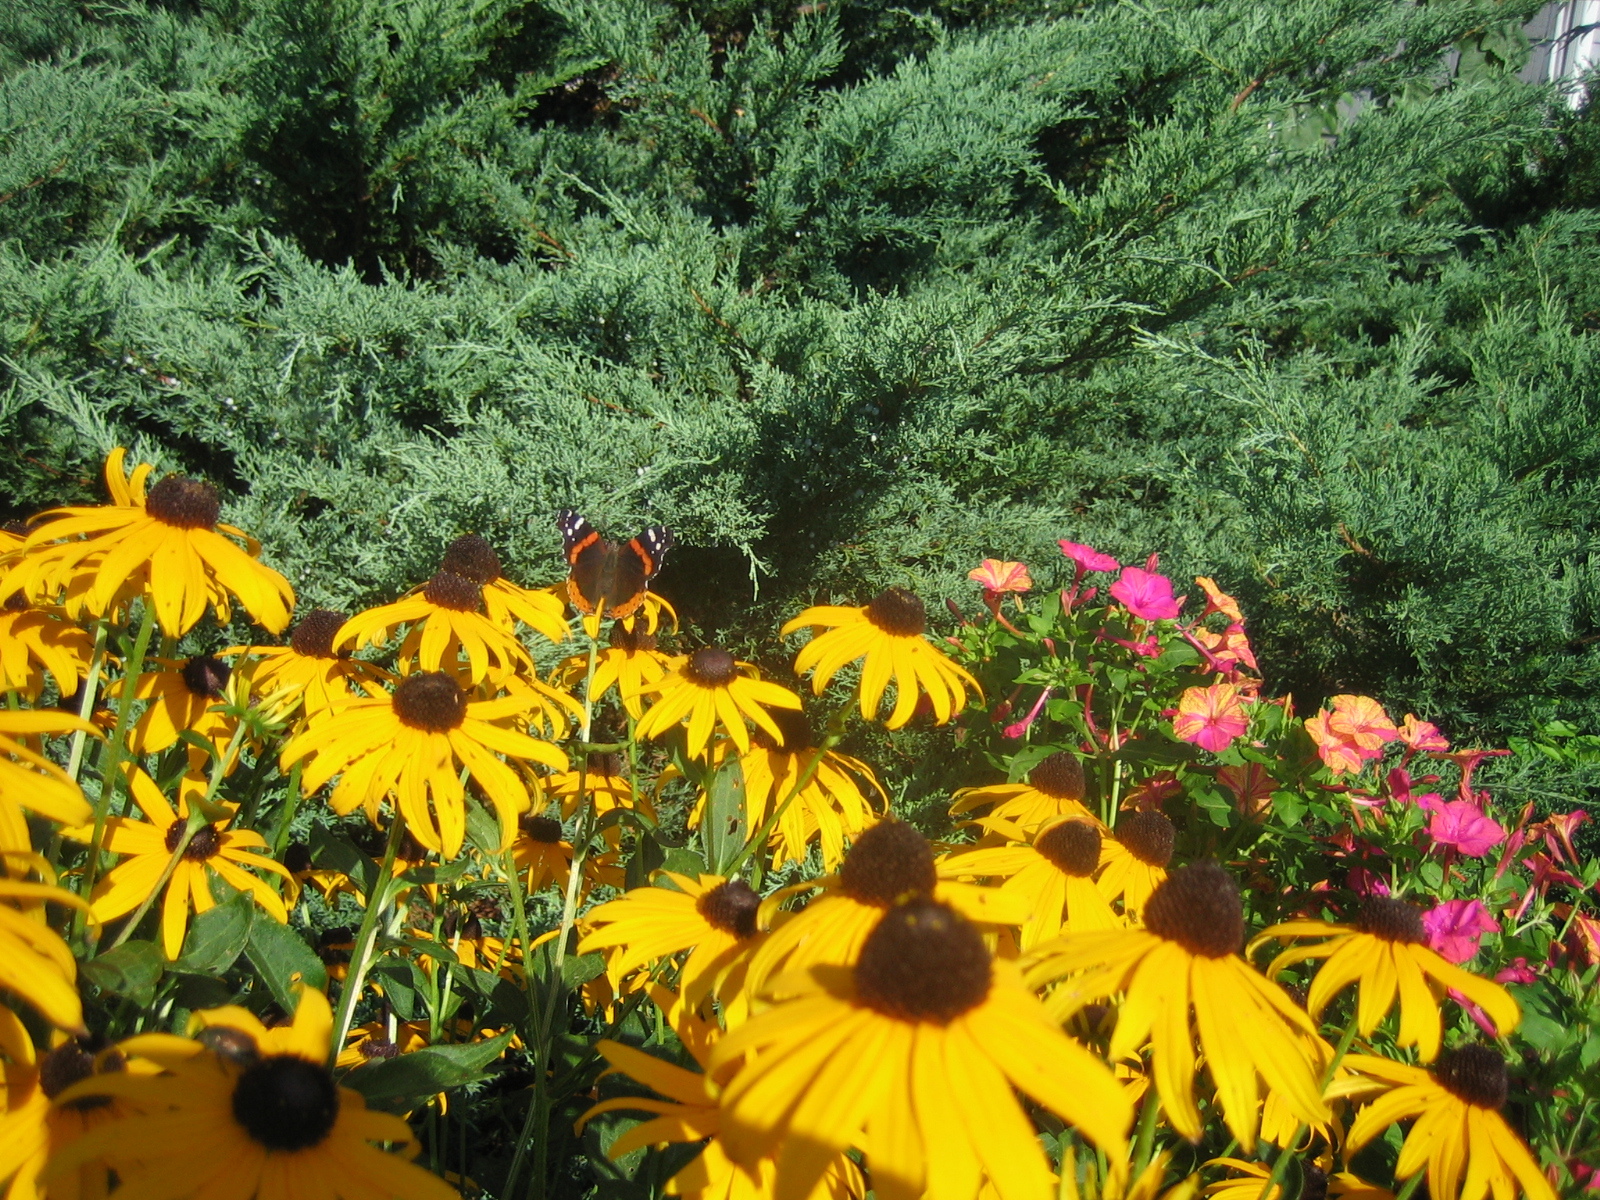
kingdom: Animalia
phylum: Arthropoda
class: Insecta
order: Lepidoptera
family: Nymphalidae
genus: Vanessa
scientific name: Vanessa atalanta
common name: Red admiral
